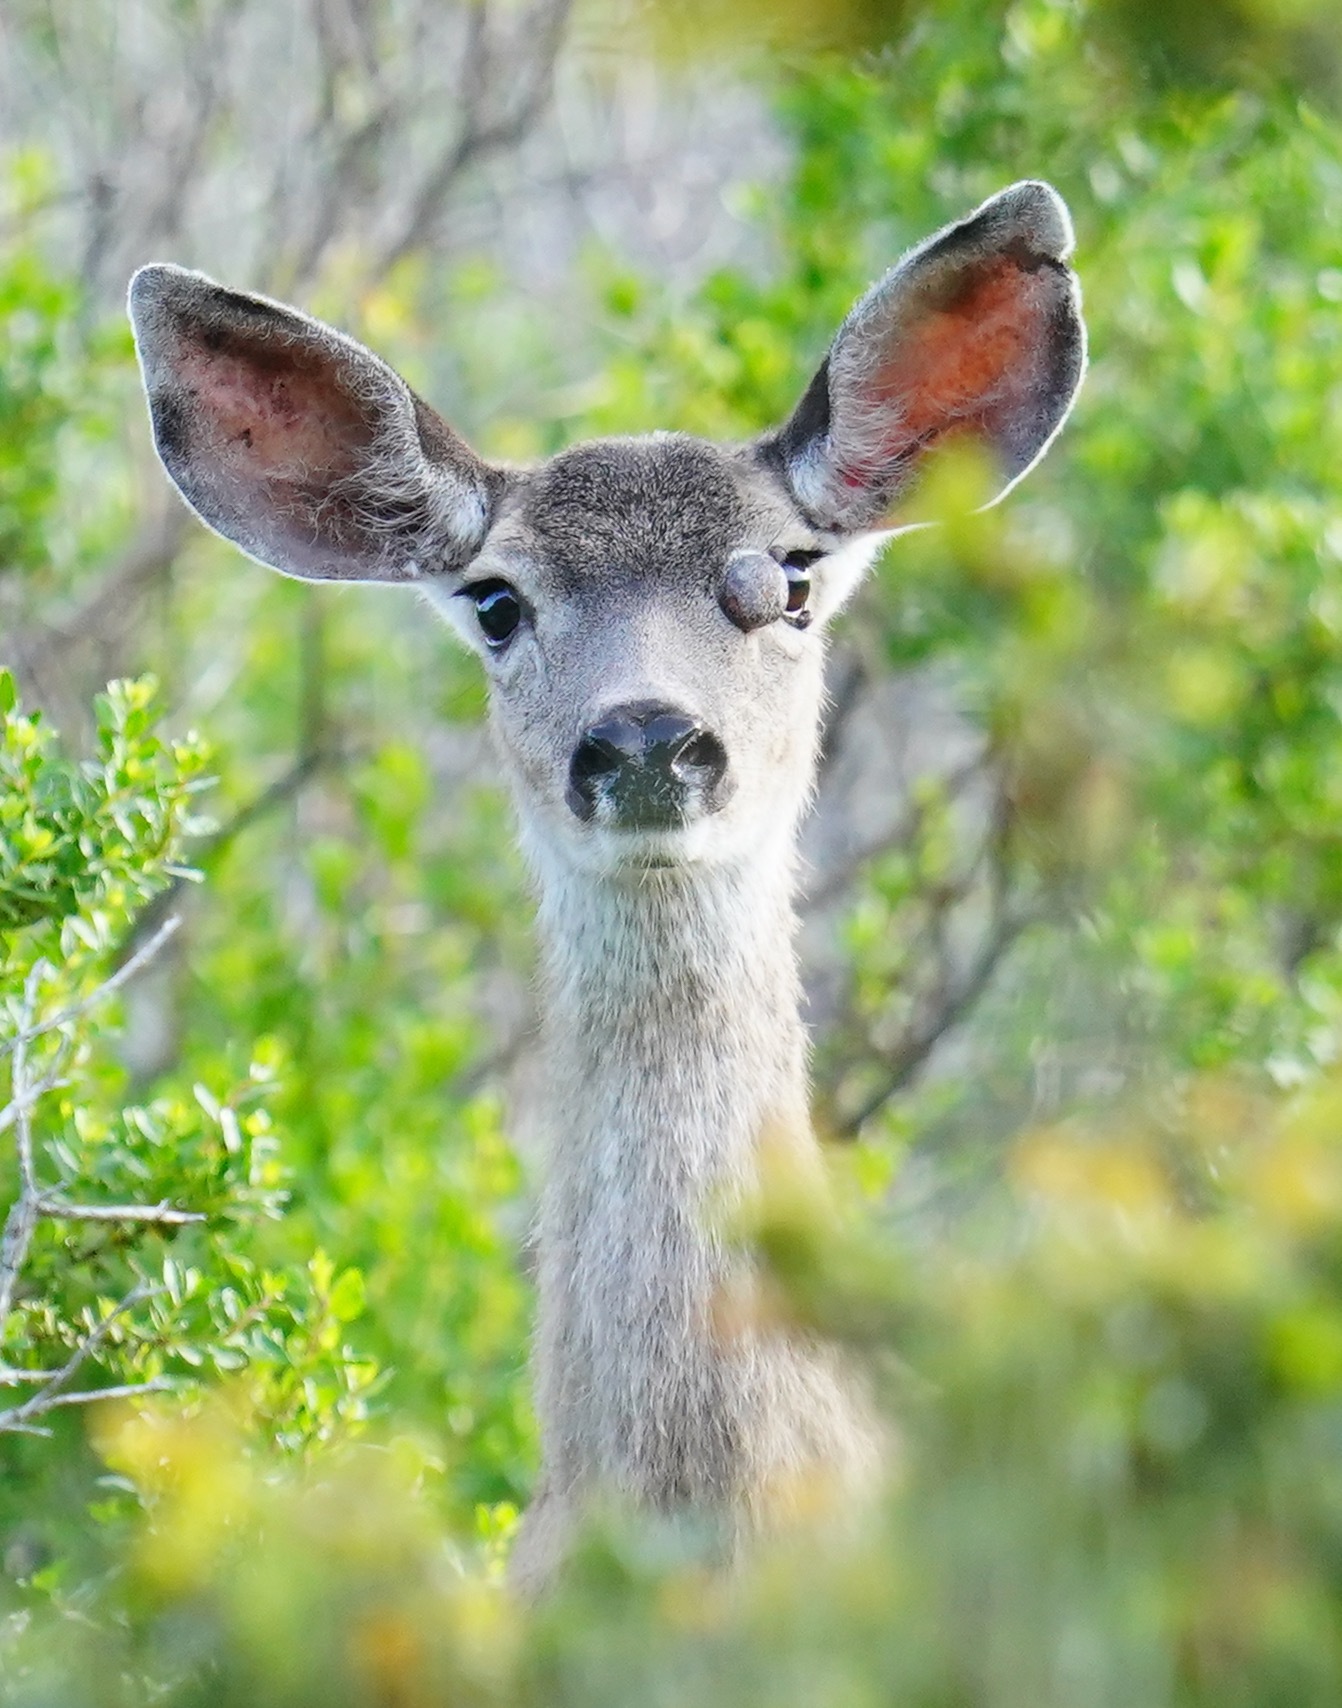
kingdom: Animalia
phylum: Chordata
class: Mammalia
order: Artiodactyla
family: Cervidae
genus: Odocoileus
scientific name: Odocoileus hemionus
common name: Mule deer
